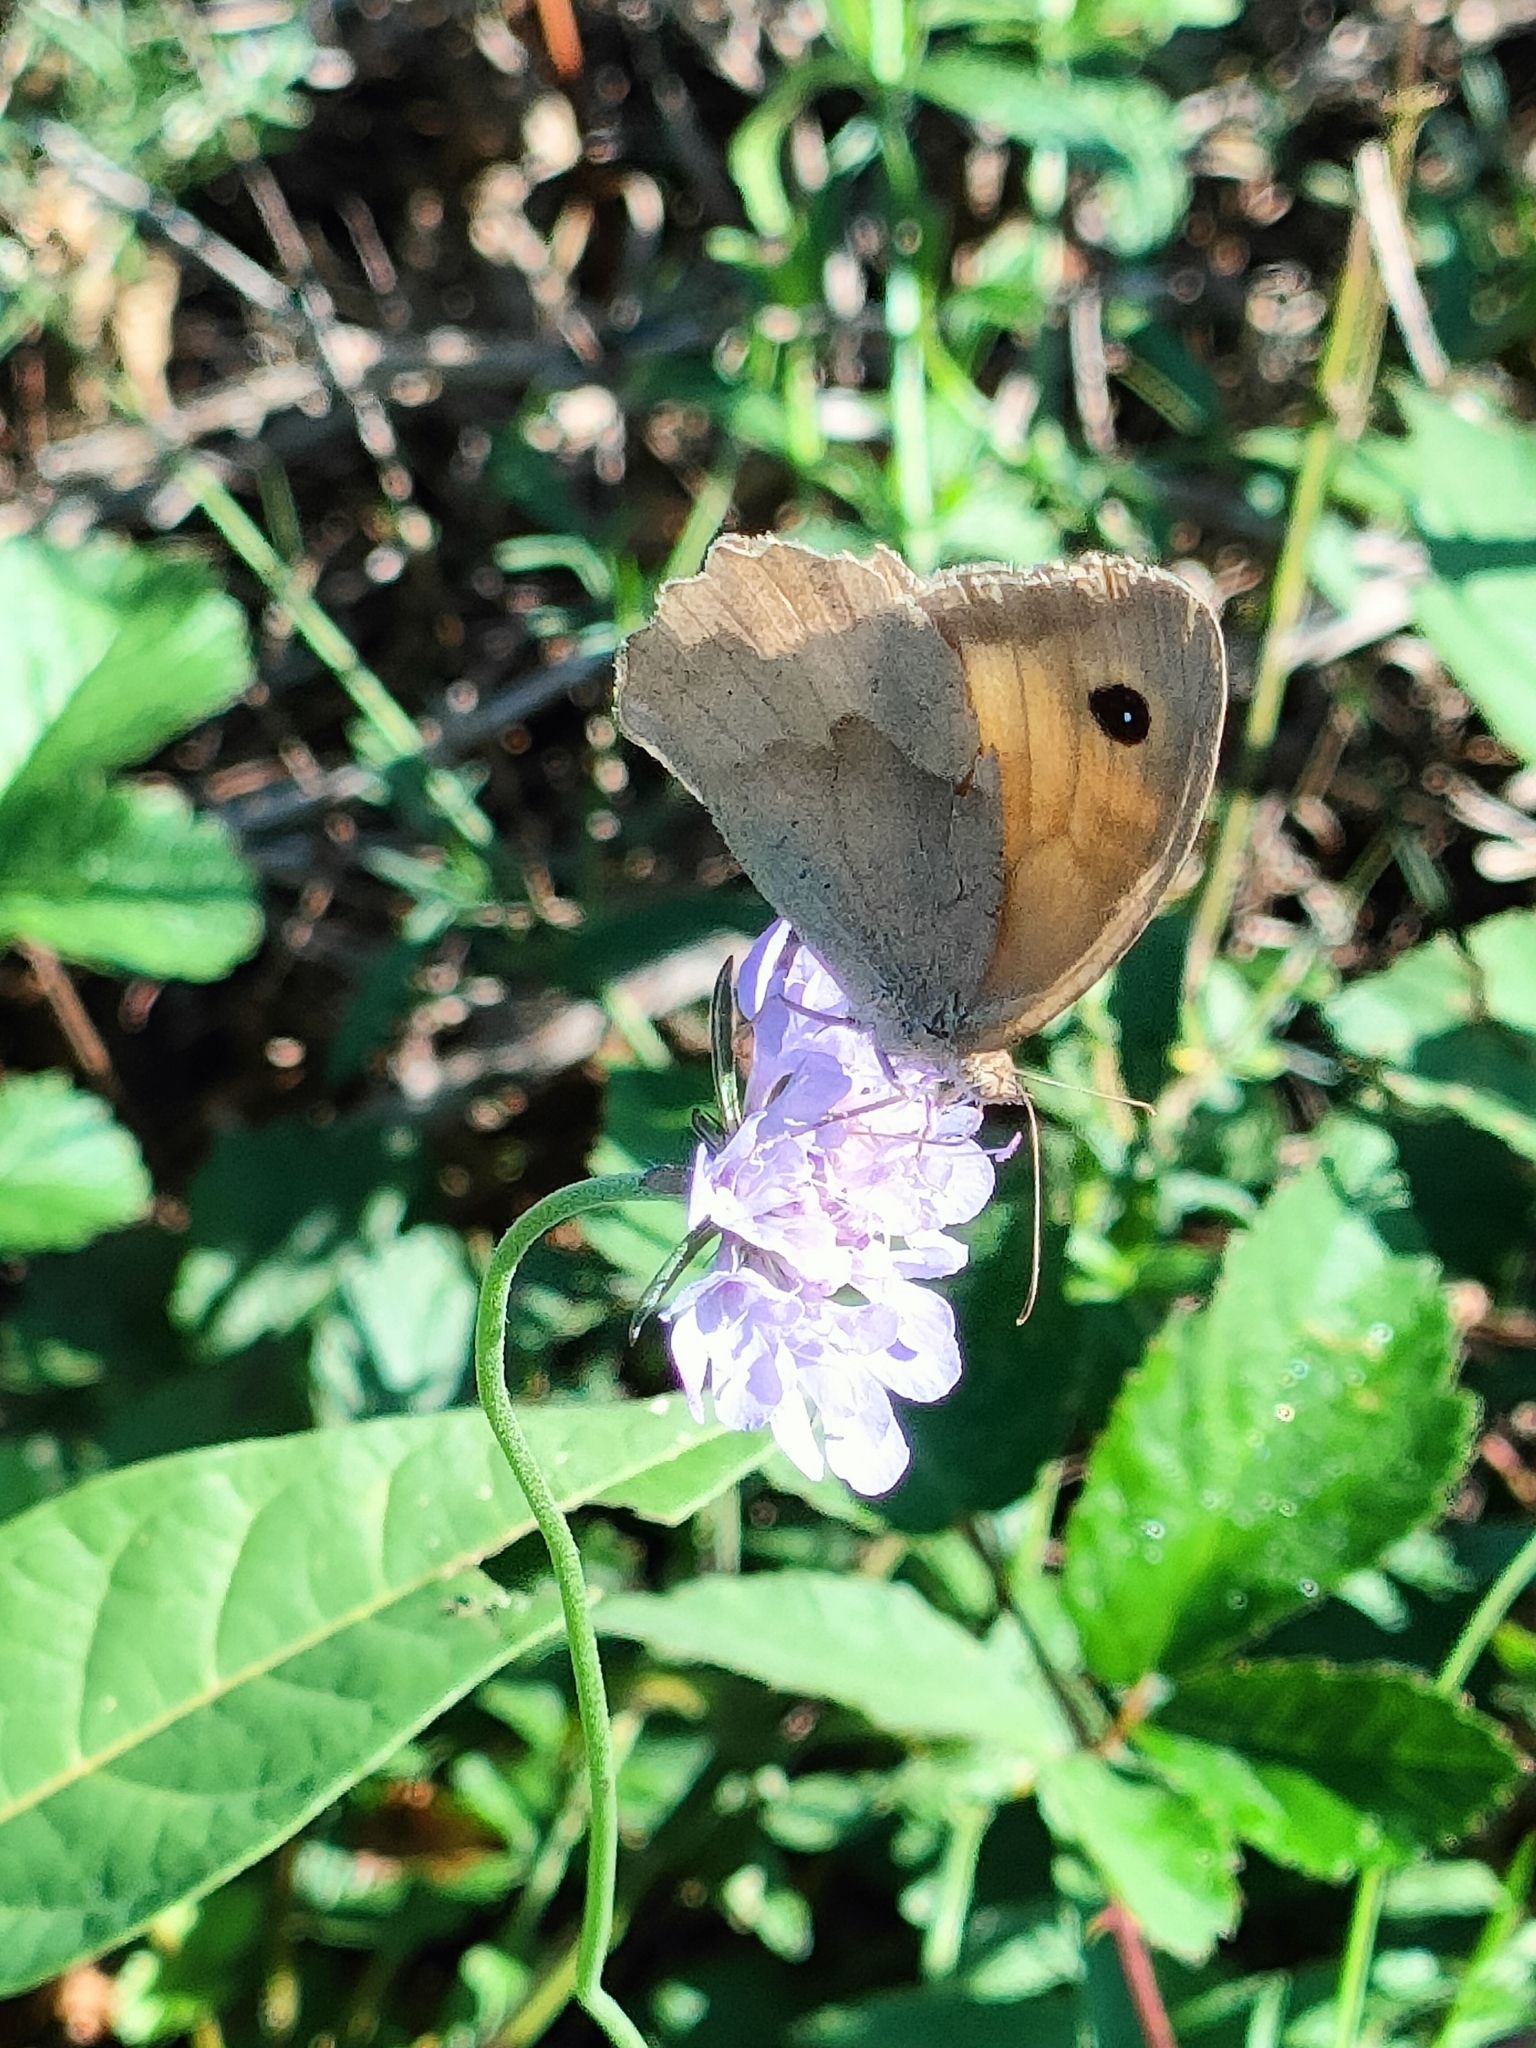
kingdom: Animalia
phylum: Arthropoda
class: Insecta
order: Lepidoptera
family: Nymphalidae
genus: Maniola
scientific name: Maniola jurtina
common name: Meadow brown
